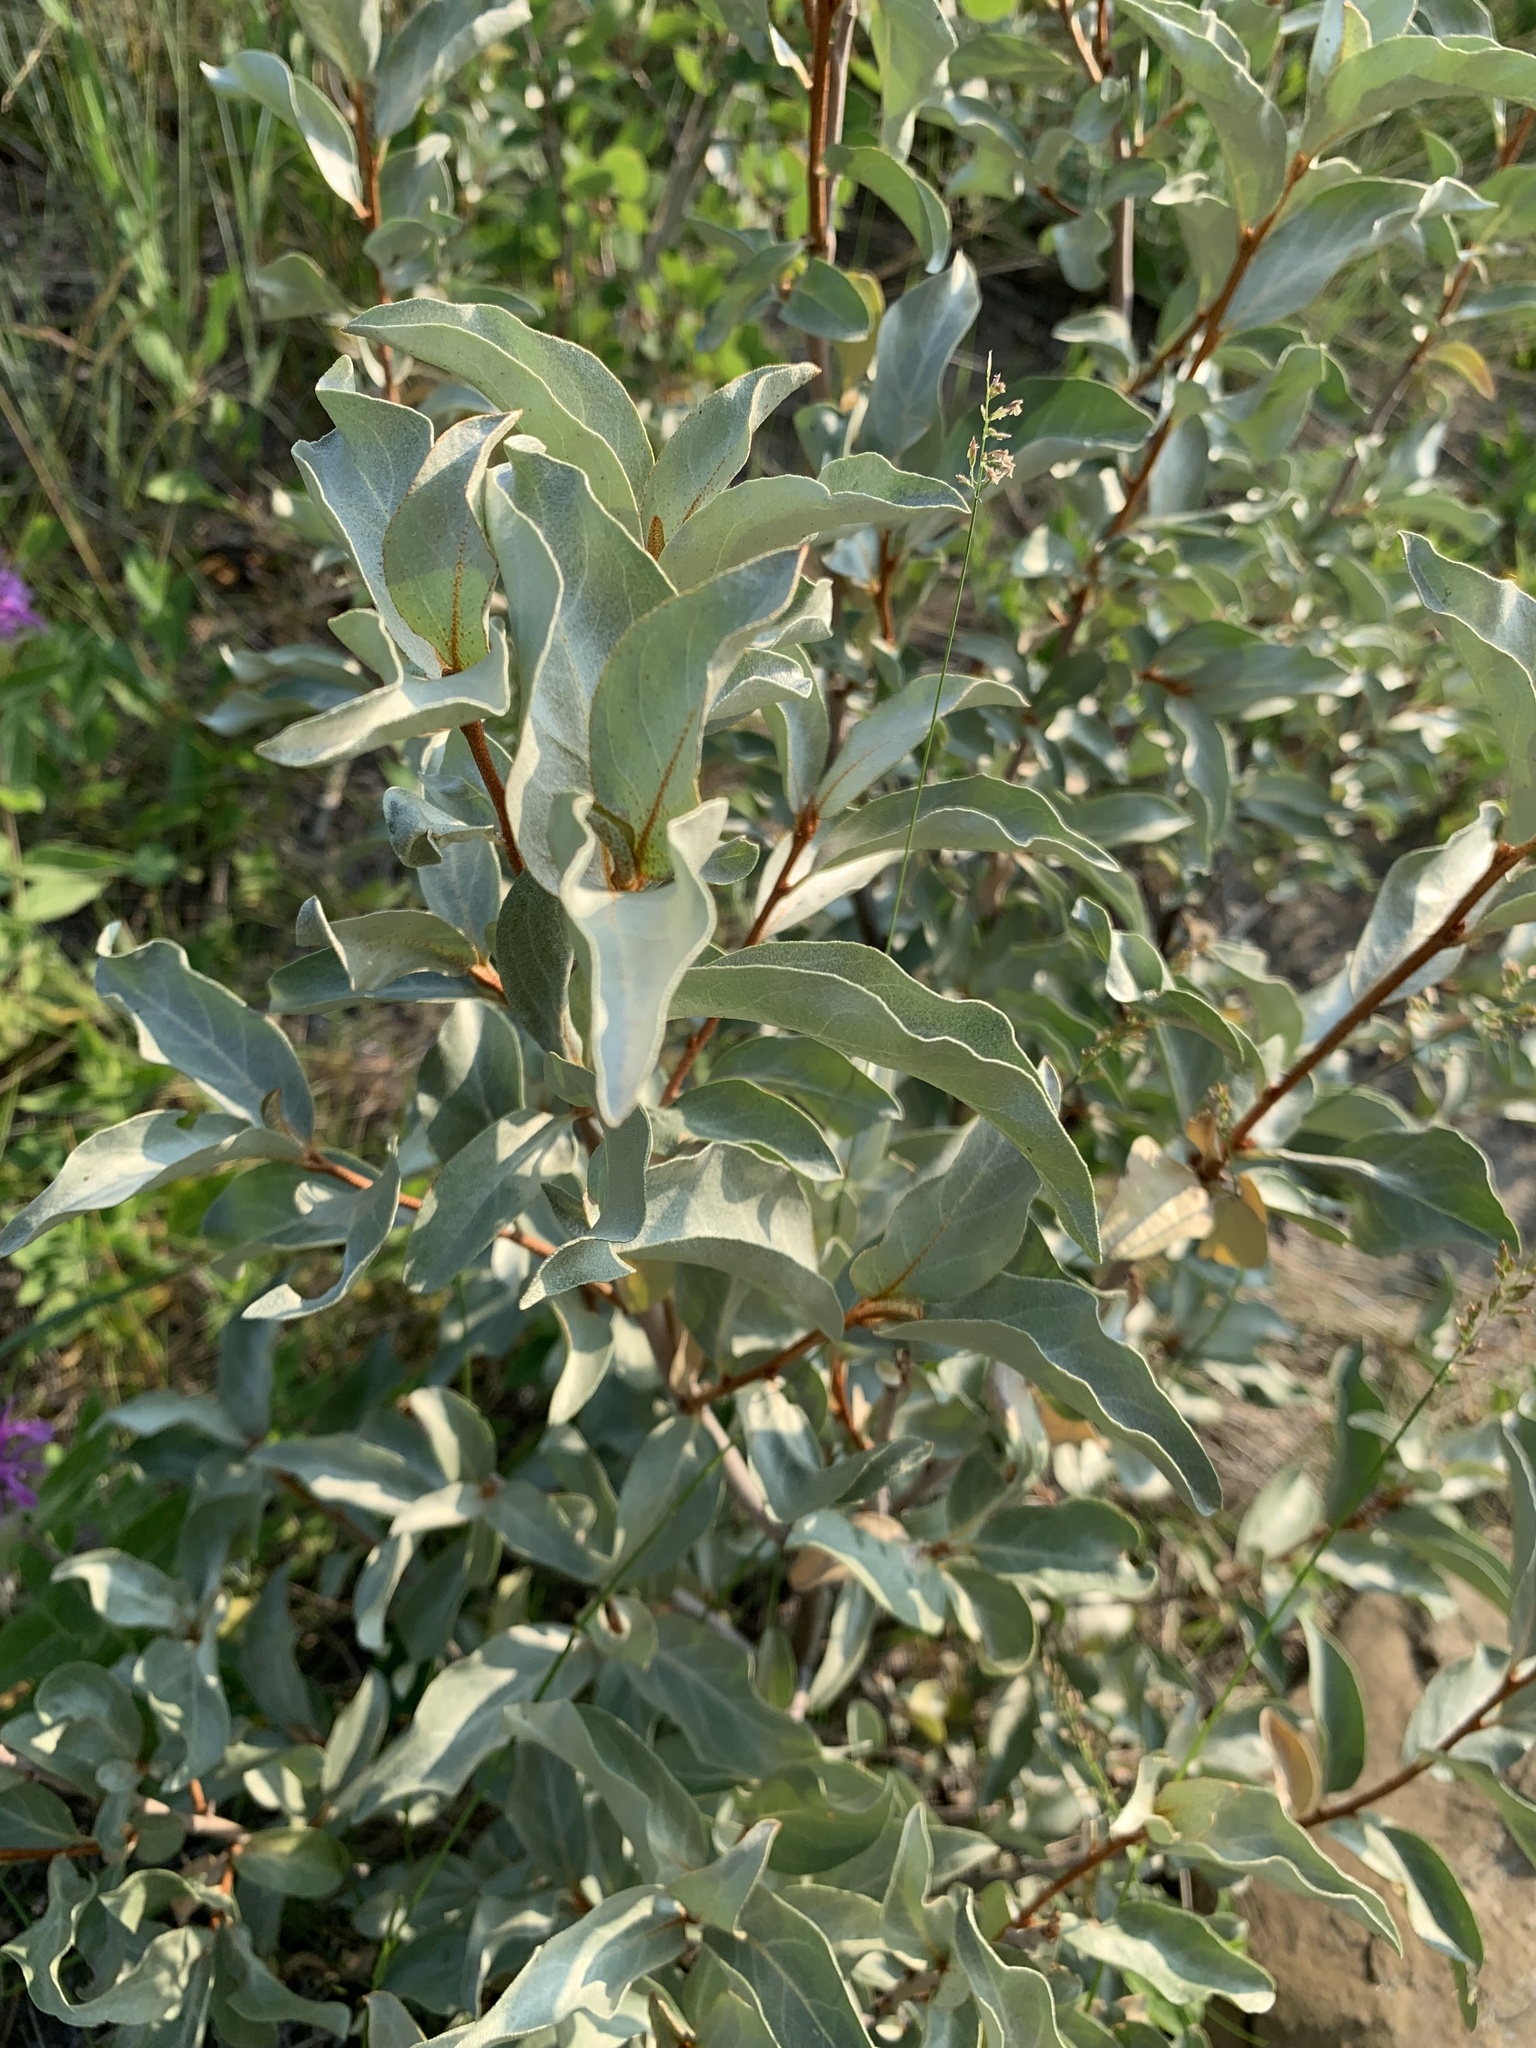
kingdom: Plantae
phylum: Tracheophyta
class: Magnoliopsida
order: Rosales
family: Elaeagnaceae
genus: Elaeagnus
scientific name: Elaeagnus commutata
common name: Silverberry
